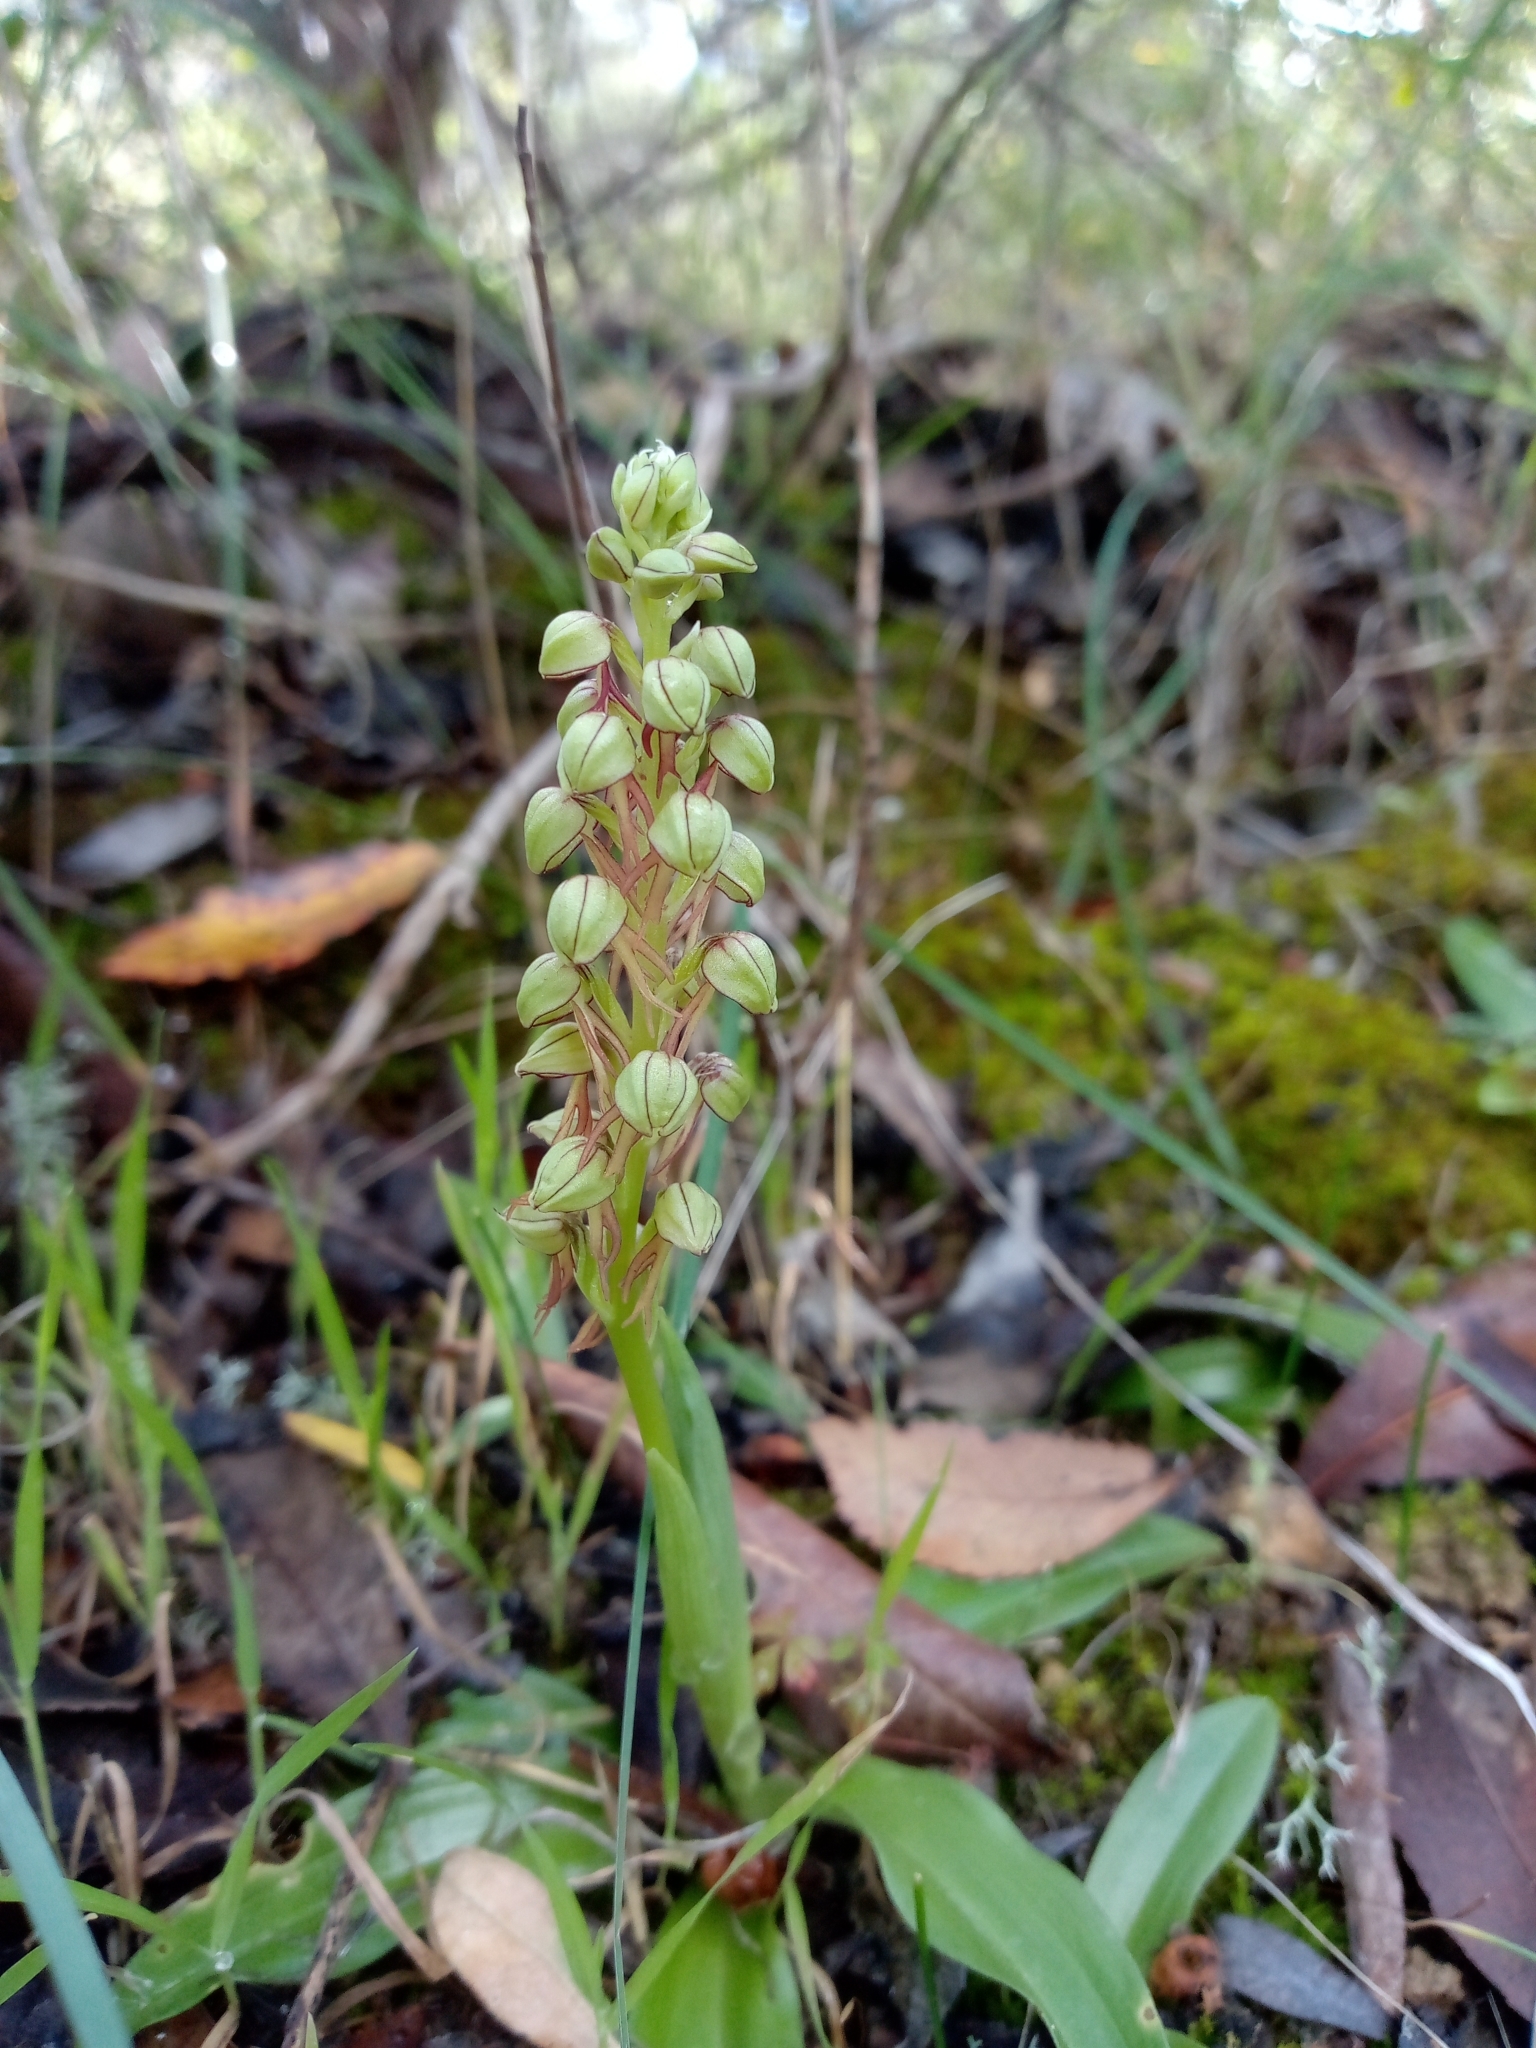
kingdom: Plantae
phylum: Tracheophyta
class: Liliopsida
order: Asparagales
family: Orchidaceae
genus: Orchis
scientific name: Orchis anthropophora
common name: Man orchid
